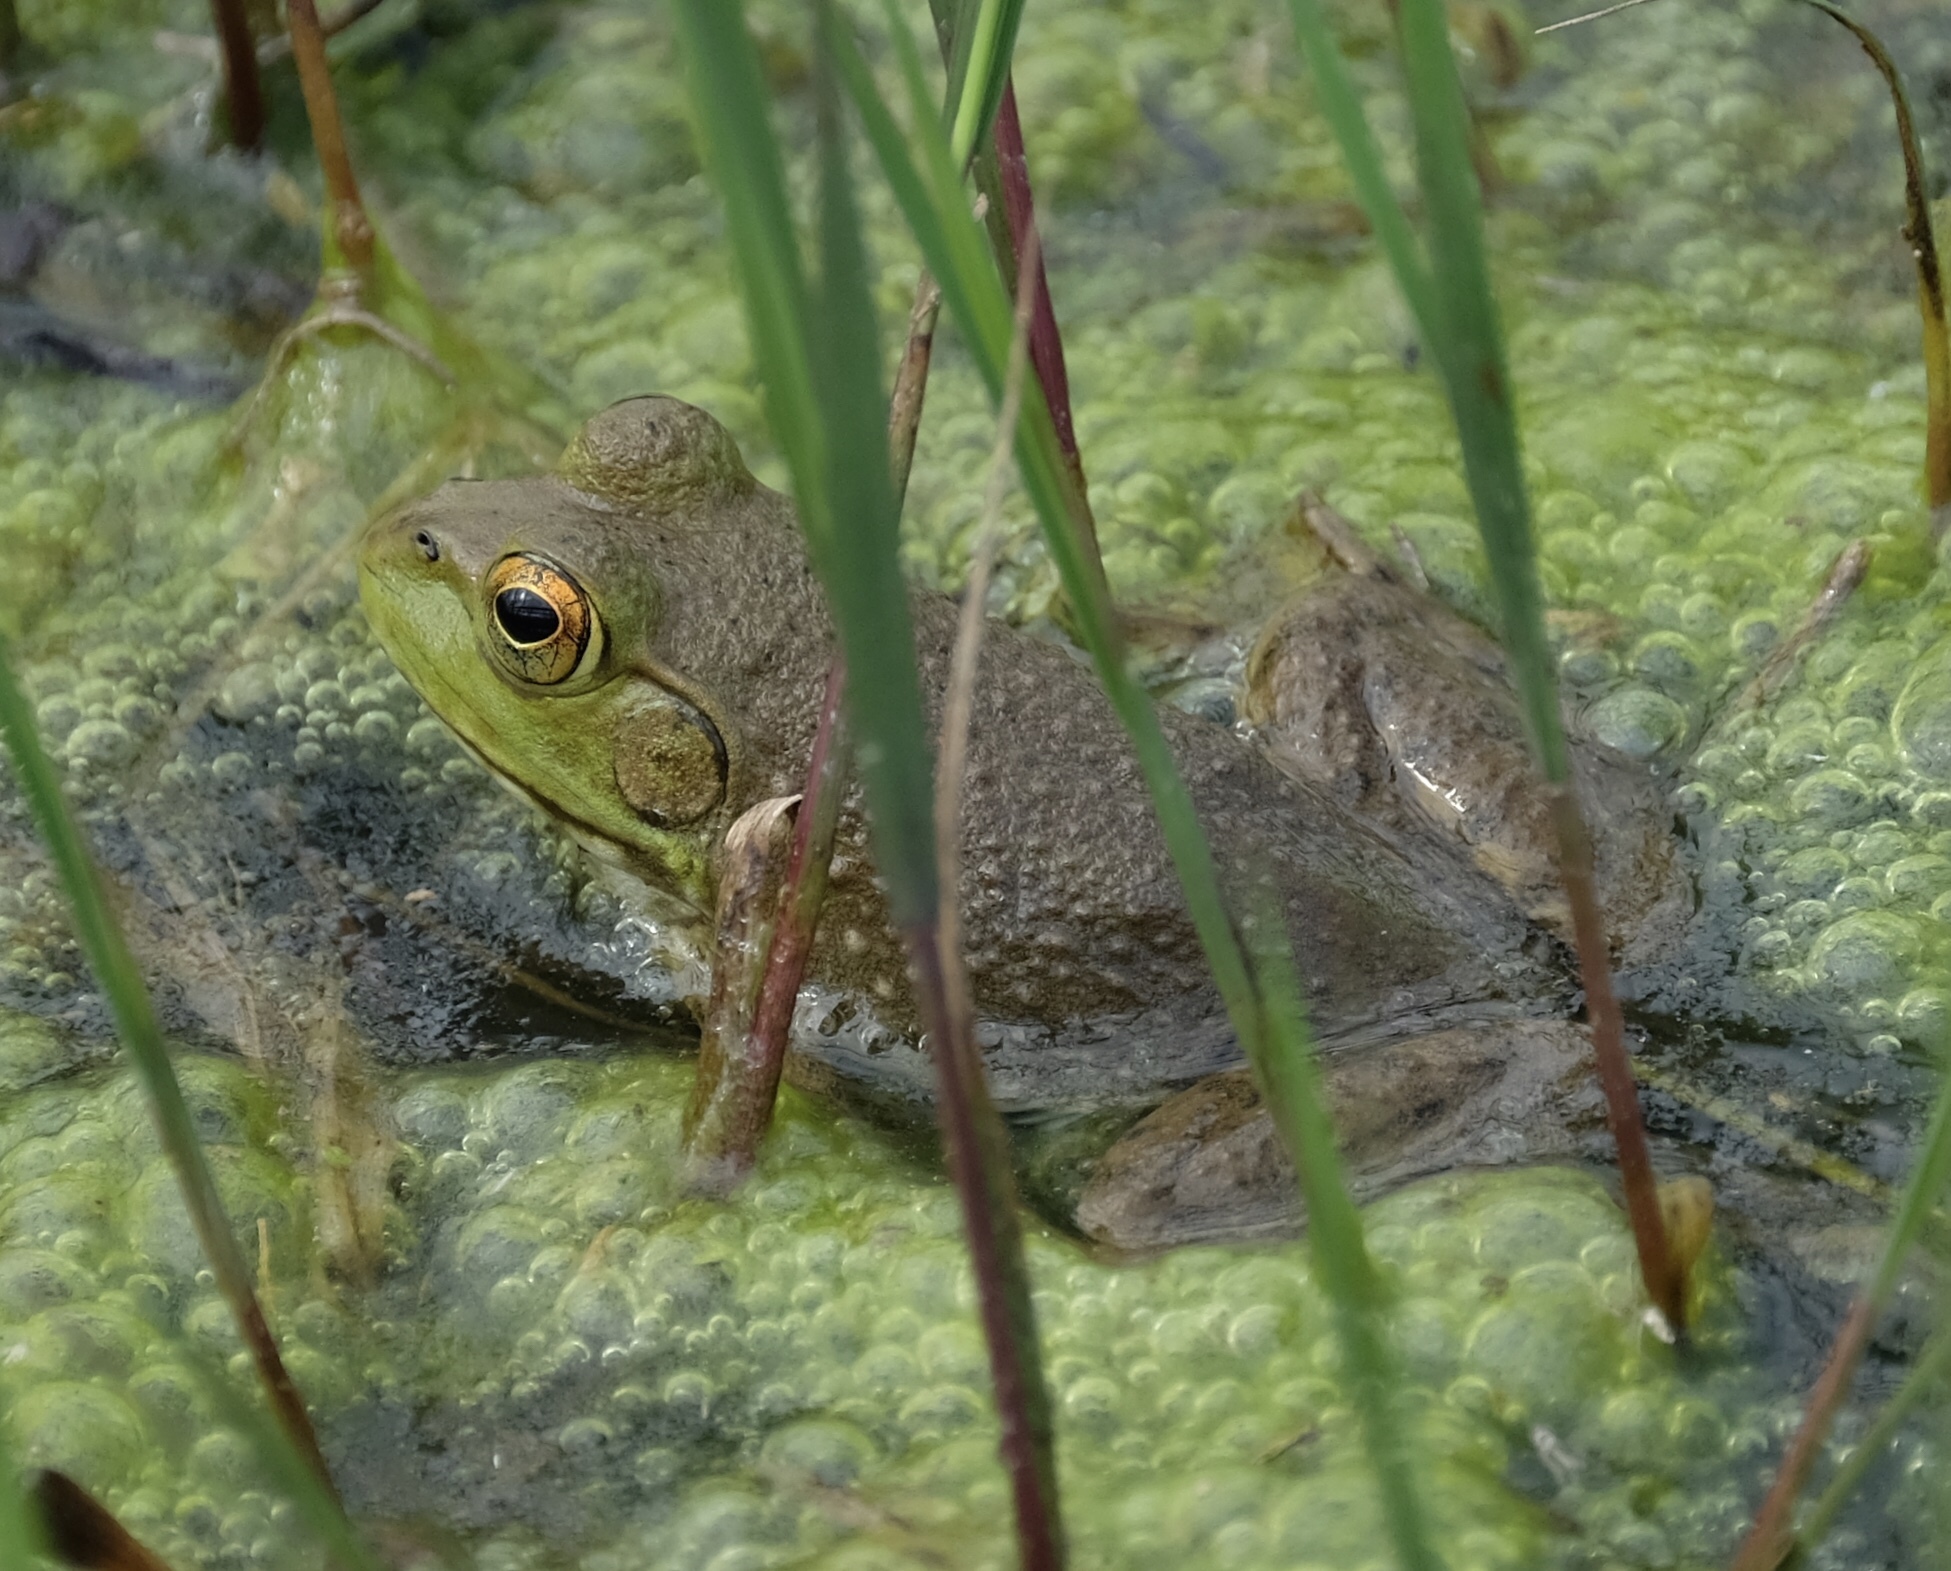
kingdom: Animalia
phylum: Chordata
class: Amphibia
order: Anura
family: Ranidae
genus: Lithobates
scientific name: Lithobates catesbeianus
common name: American bullfrog
